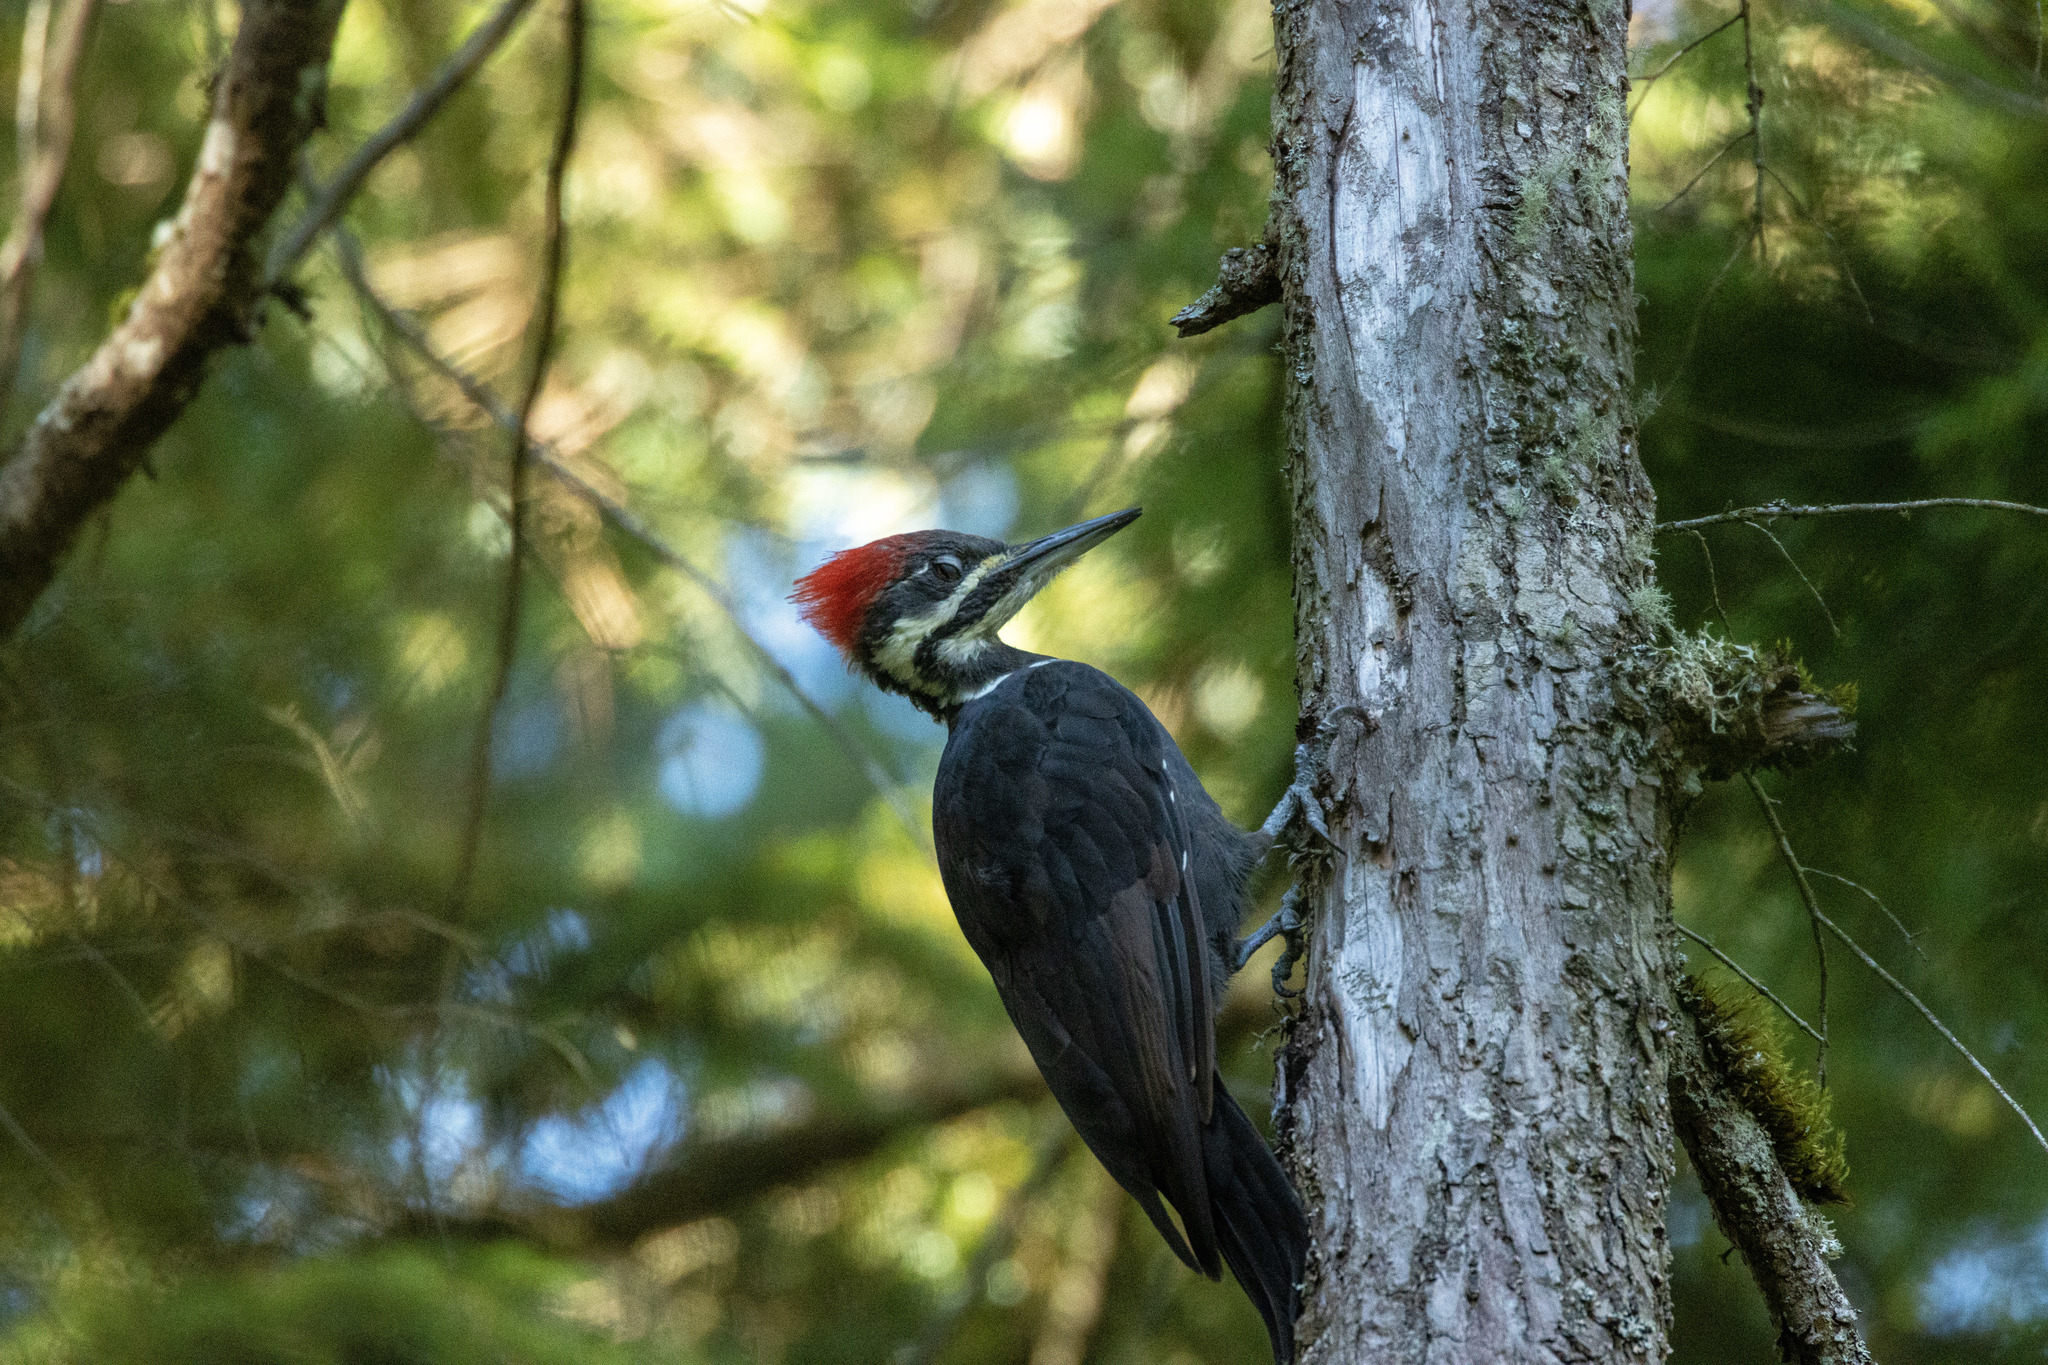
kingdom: Animalia
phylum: Chordata
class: Aves
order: Piciformes
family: Picidae
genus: Dryocopus
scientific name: Dryocopus pileatus
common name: Pileated woodpecker
